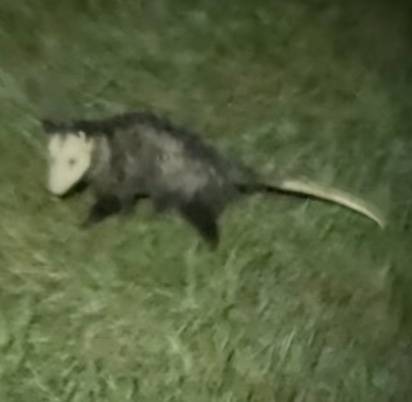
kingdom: Animalia
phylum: Chordata
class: Mammalia
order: Didelphimorphia
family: Didelphidae
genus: Didelphis
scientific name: Didelphis virginiana
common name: Virginia opossum
